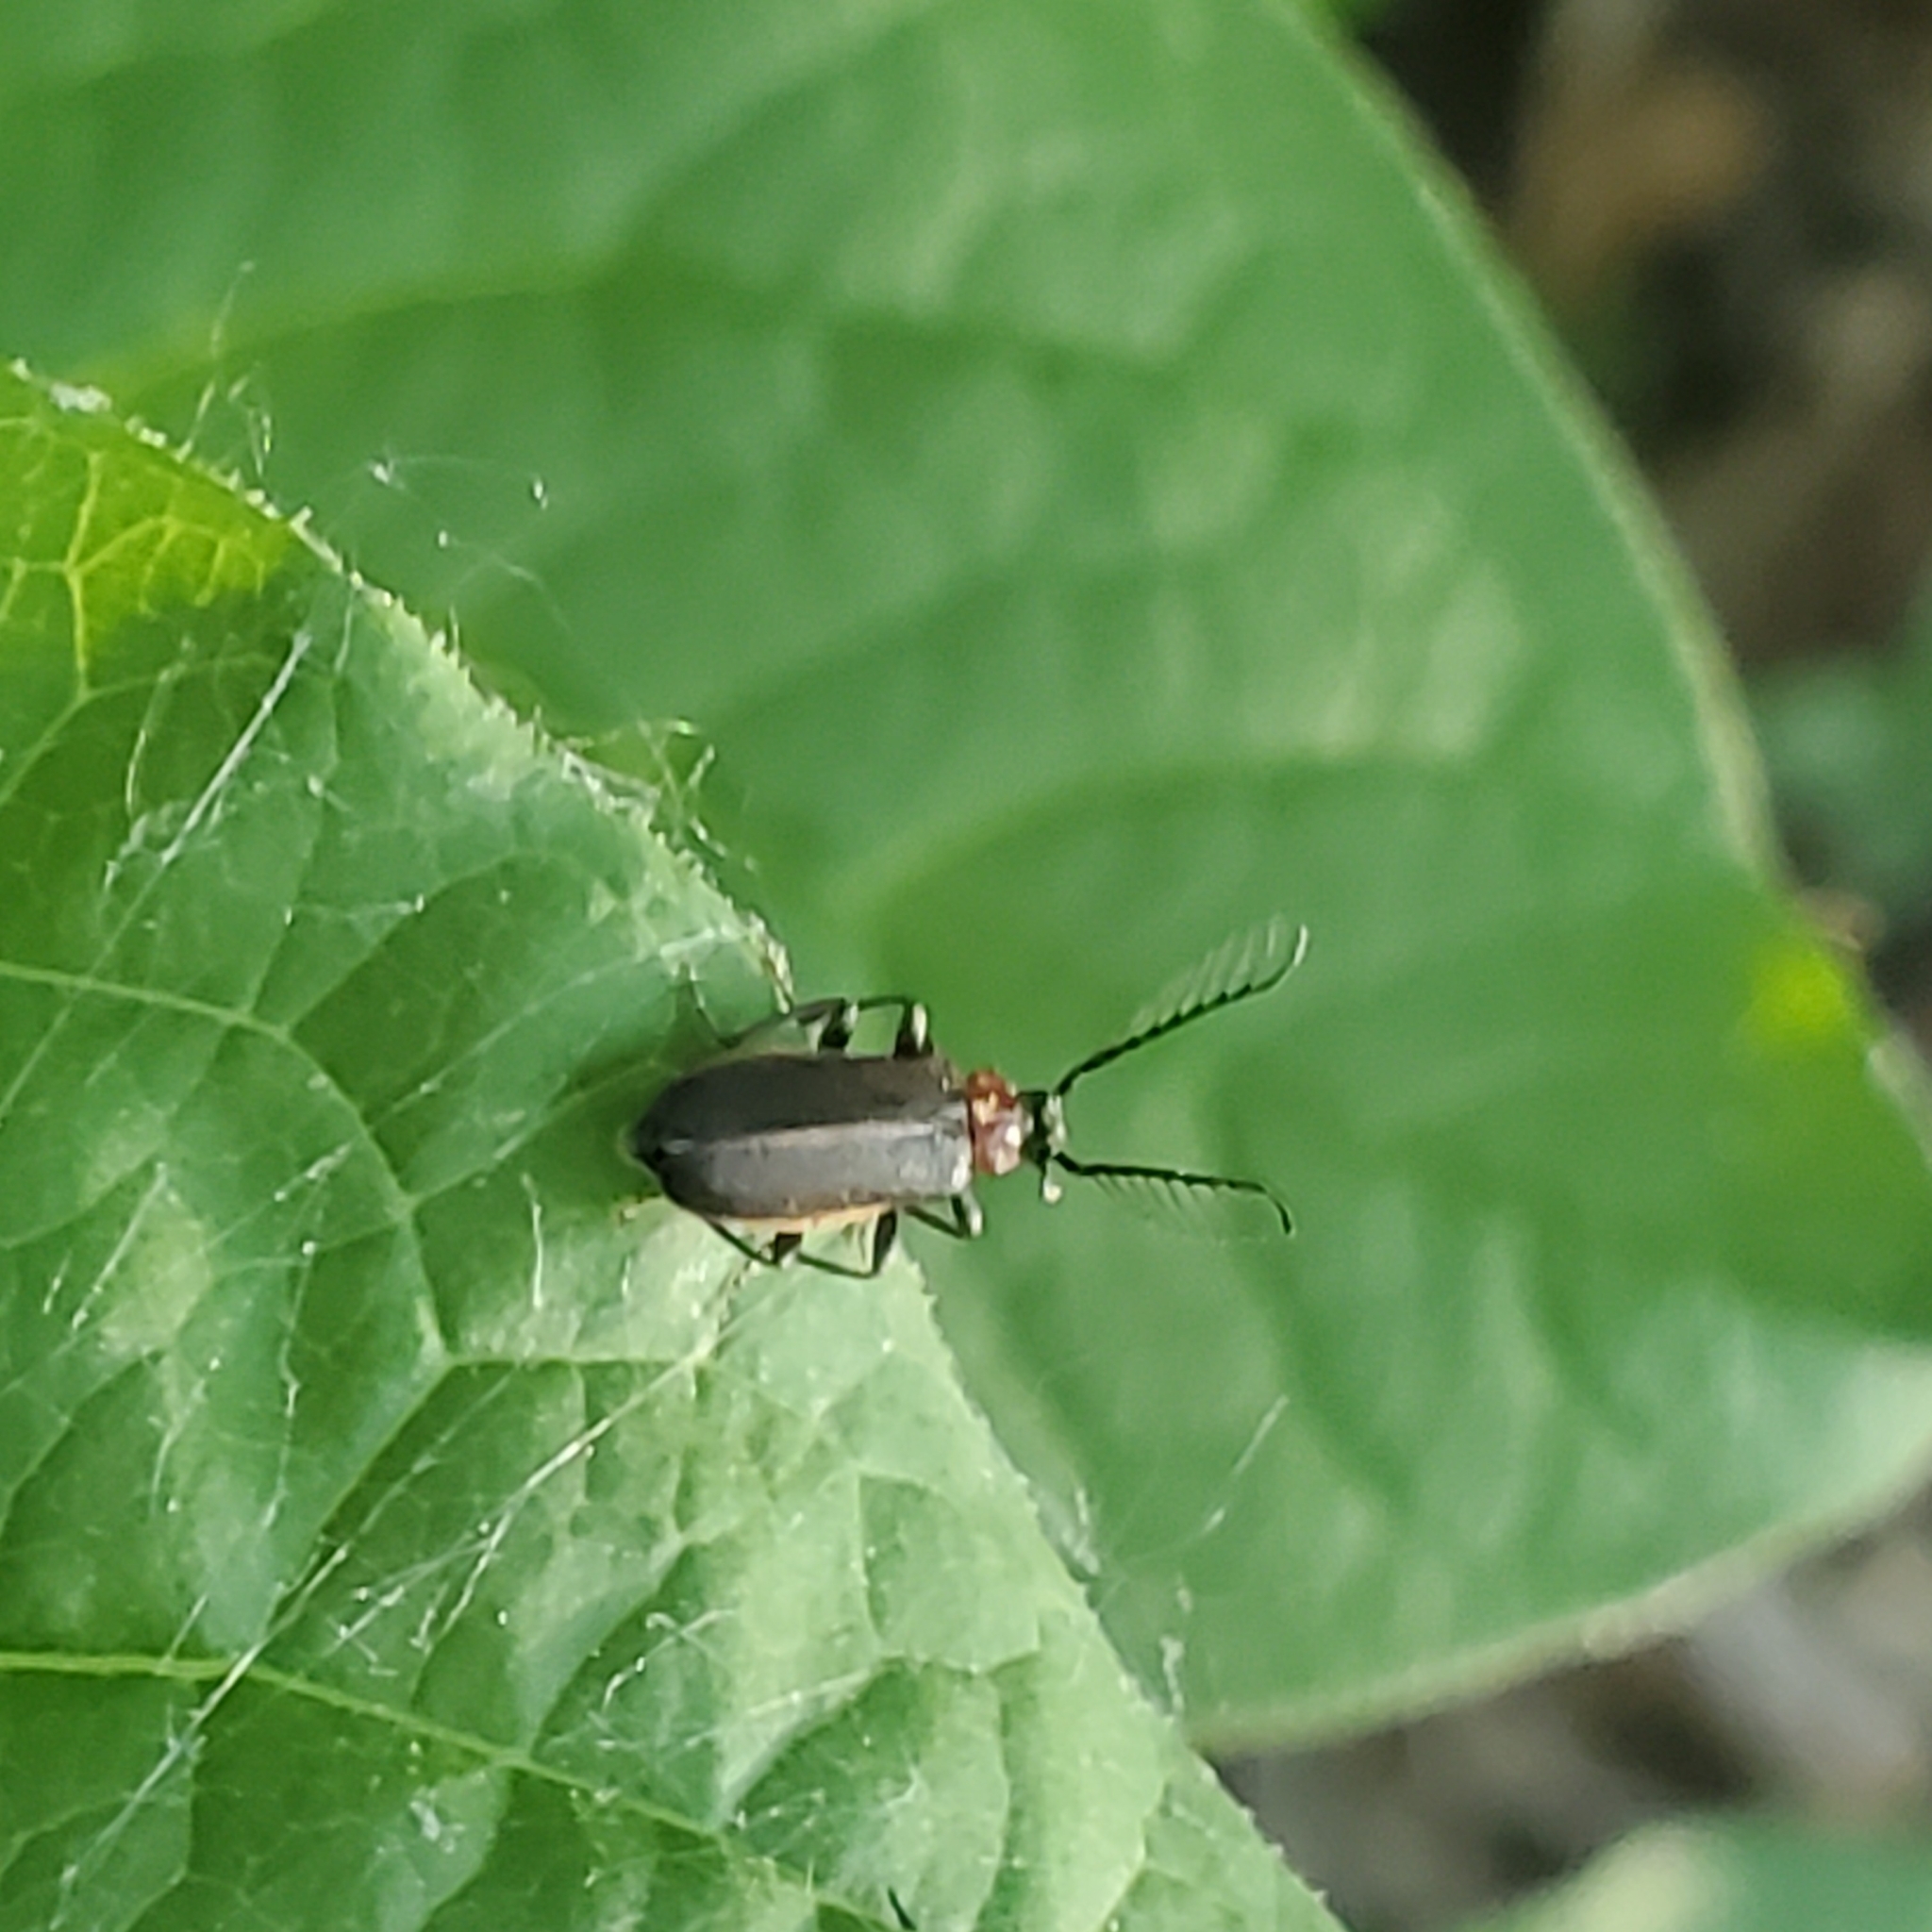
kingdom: Animalia
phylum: Arthropoda
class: Insecta
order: Coleoptera
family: Pyrochroidae
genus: Schizotus
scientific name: Schizotus cervicalis
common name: Flaming-pillow beetle
